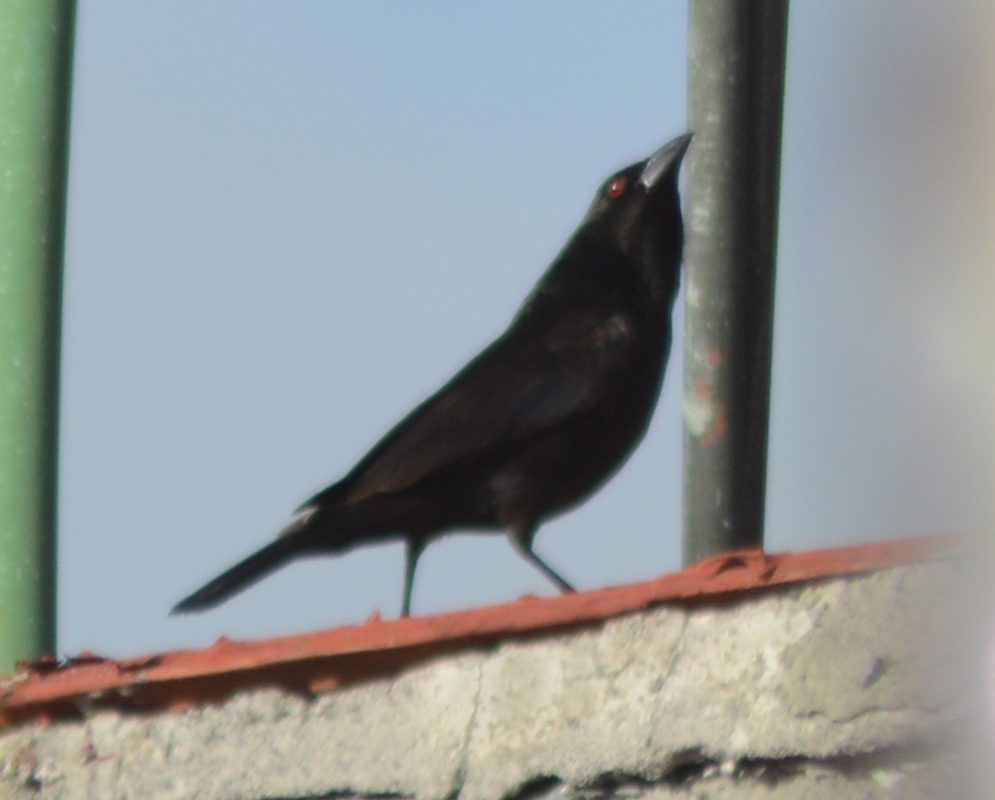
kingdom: Animalia
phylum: Chordata
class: Aves
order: Passeriformes
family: Icteridae
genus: Molothrus
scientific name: Molothrus aeneus
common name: Bronzed cowbird
